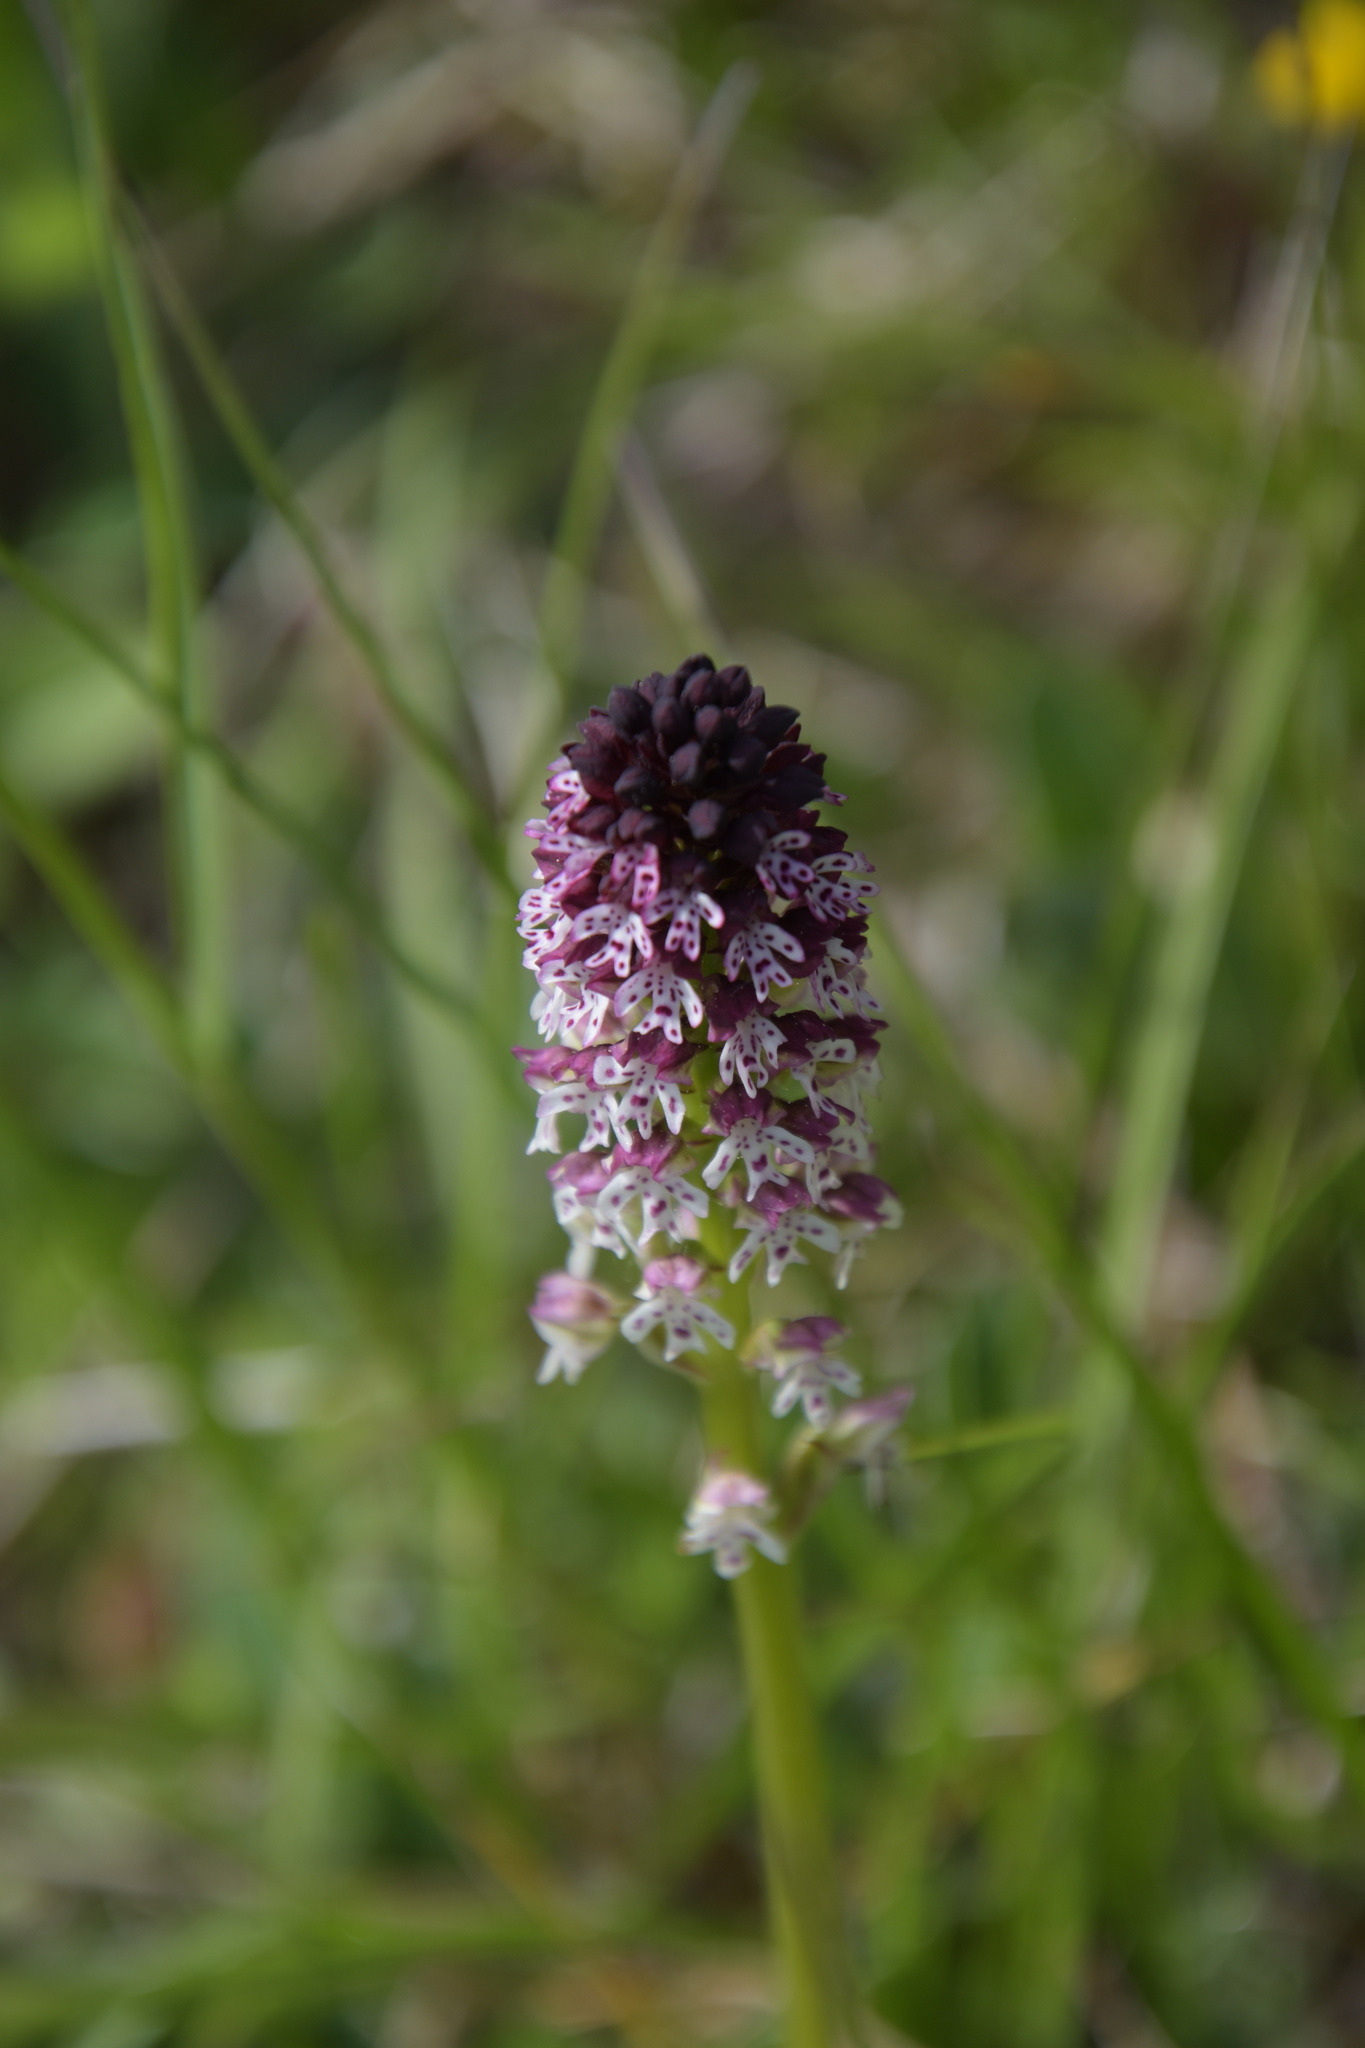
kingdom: Plantae
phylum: Tracheophyta
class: Liliopsida
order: Asparagales
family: Orchidaceae
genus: Neotinea
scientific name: Neotinea ustulata
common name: Burnt orchid
